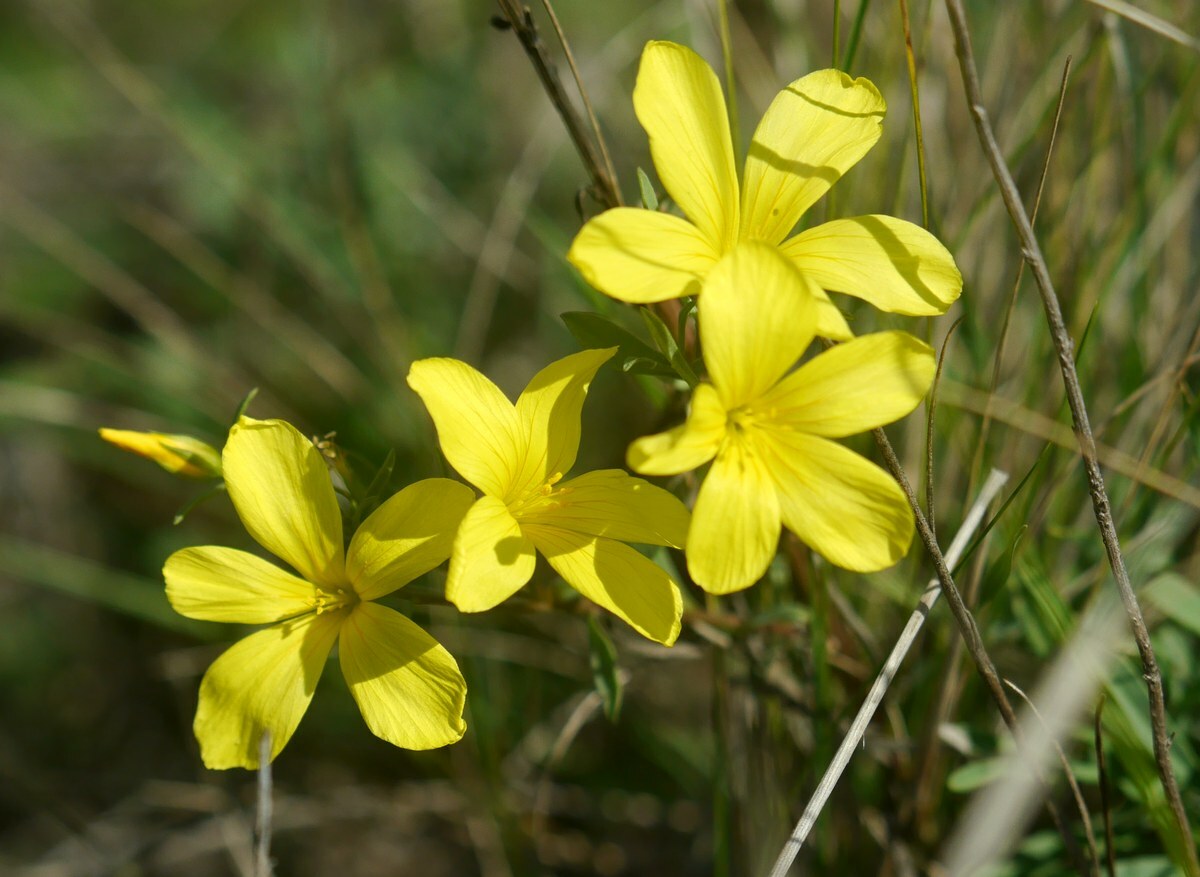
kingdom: Plantae
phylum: Tracheophyta
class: Magnoliopsida
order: Malpighiales
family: Linaceae
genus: Linum
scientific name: Linum tauricum
